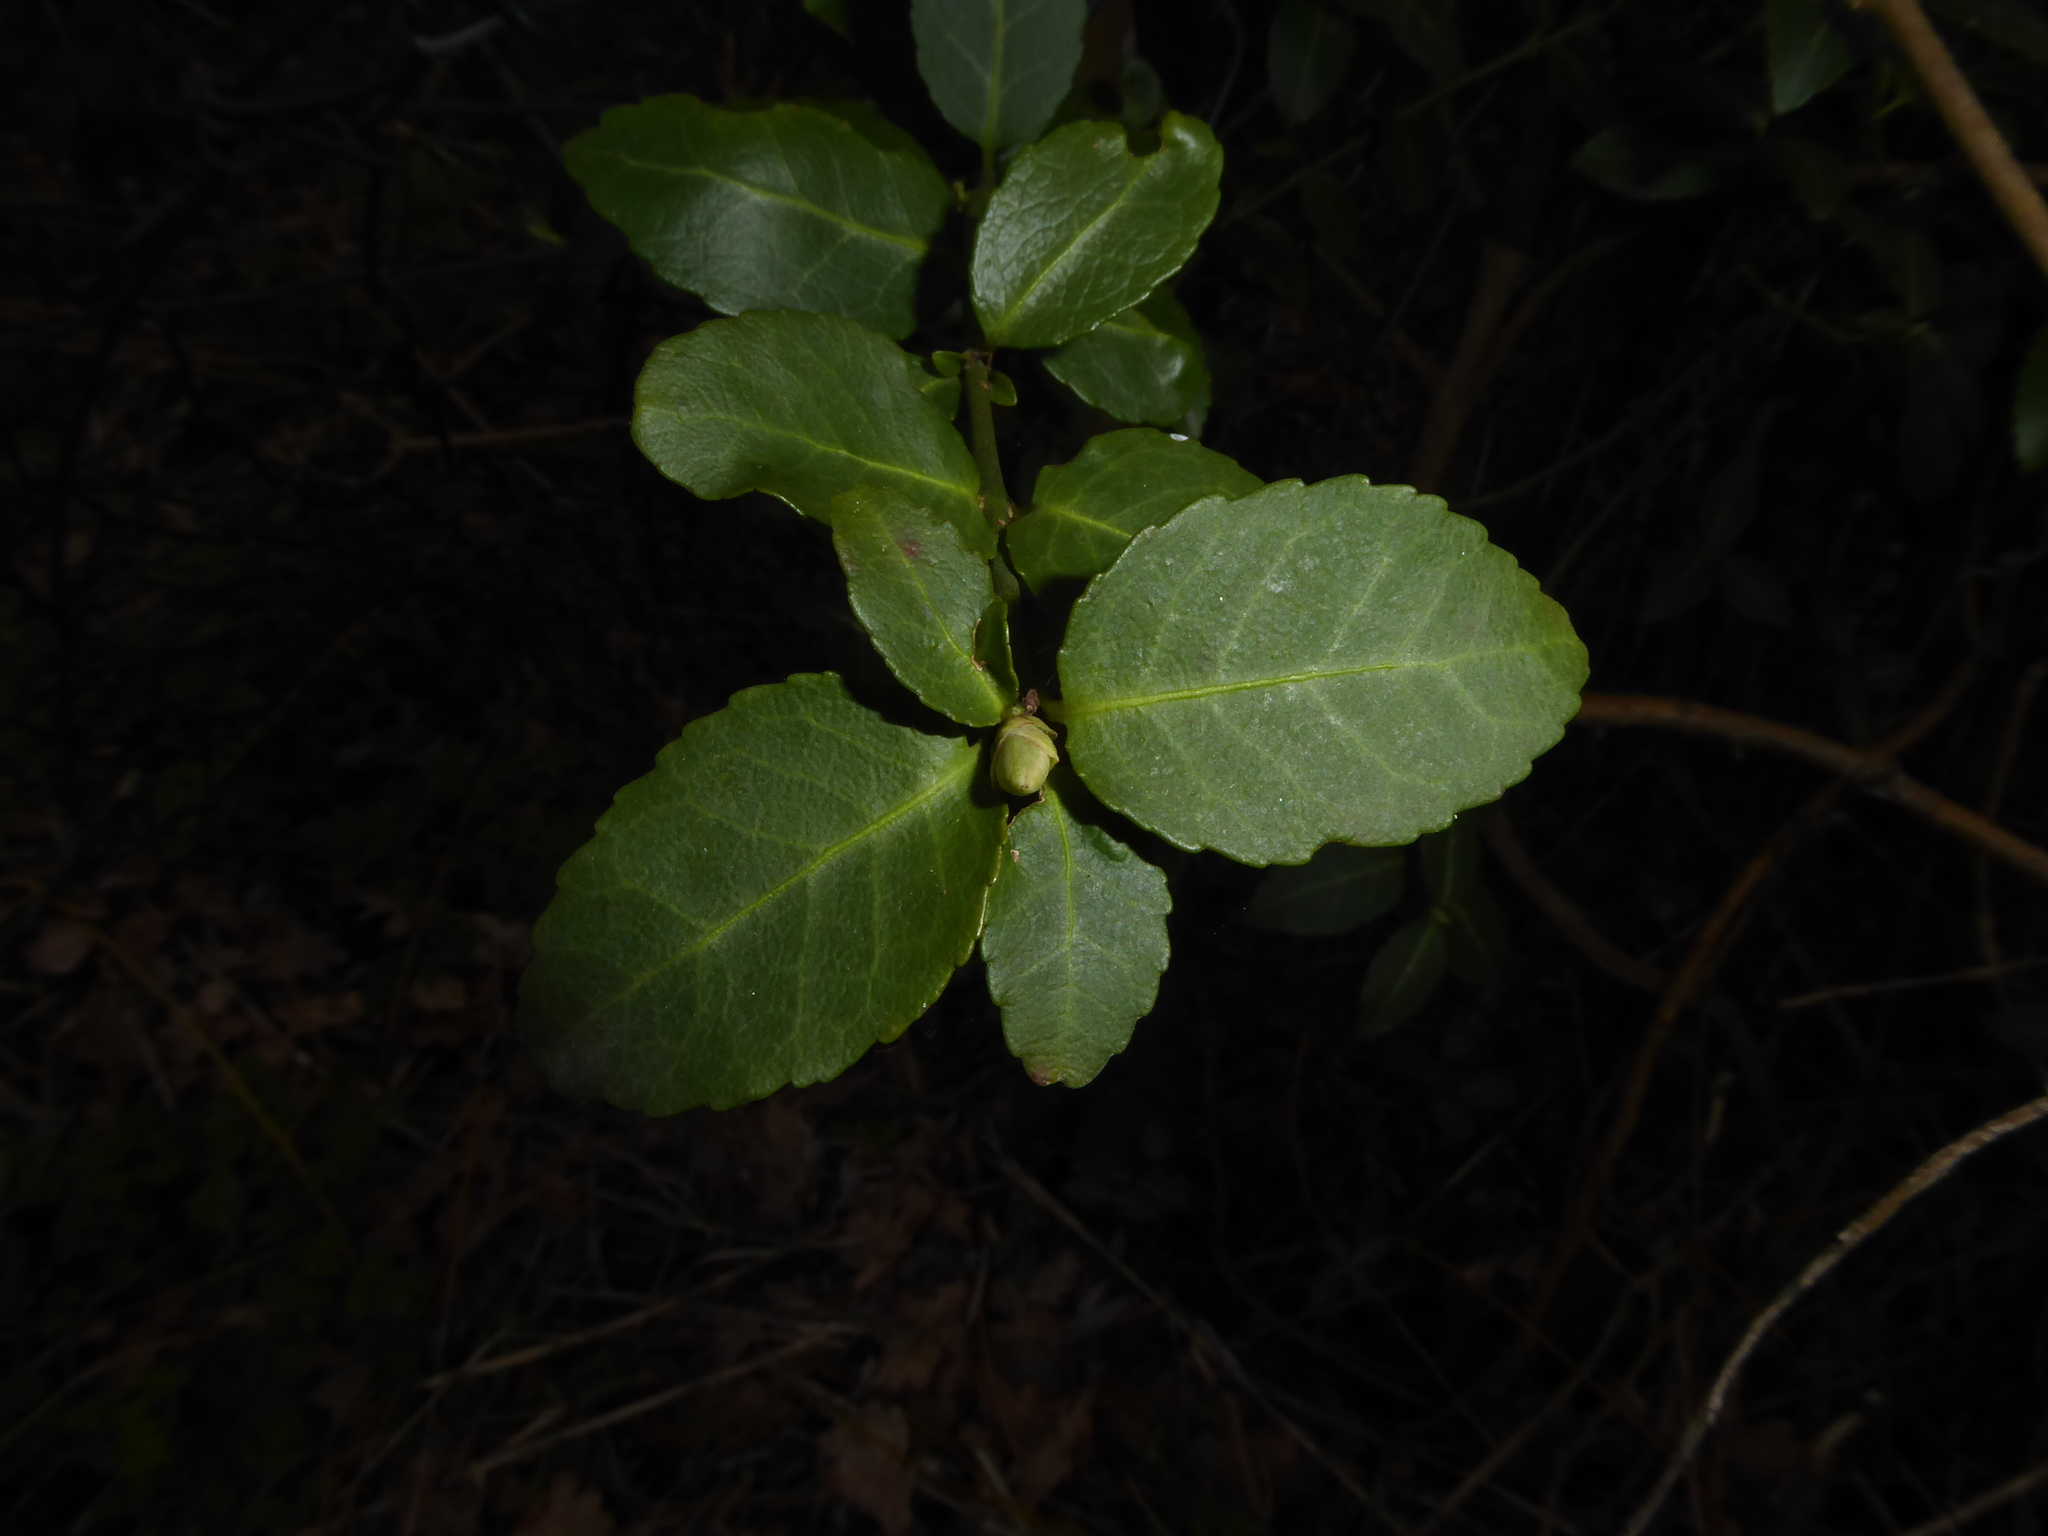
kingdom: Plantae
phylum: Tracheophyta
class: Magnoliopsida
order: Celastrales
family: Celastraceae
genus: Euonymus
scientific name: Euonymus fortunei
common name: Climbing euonymus
